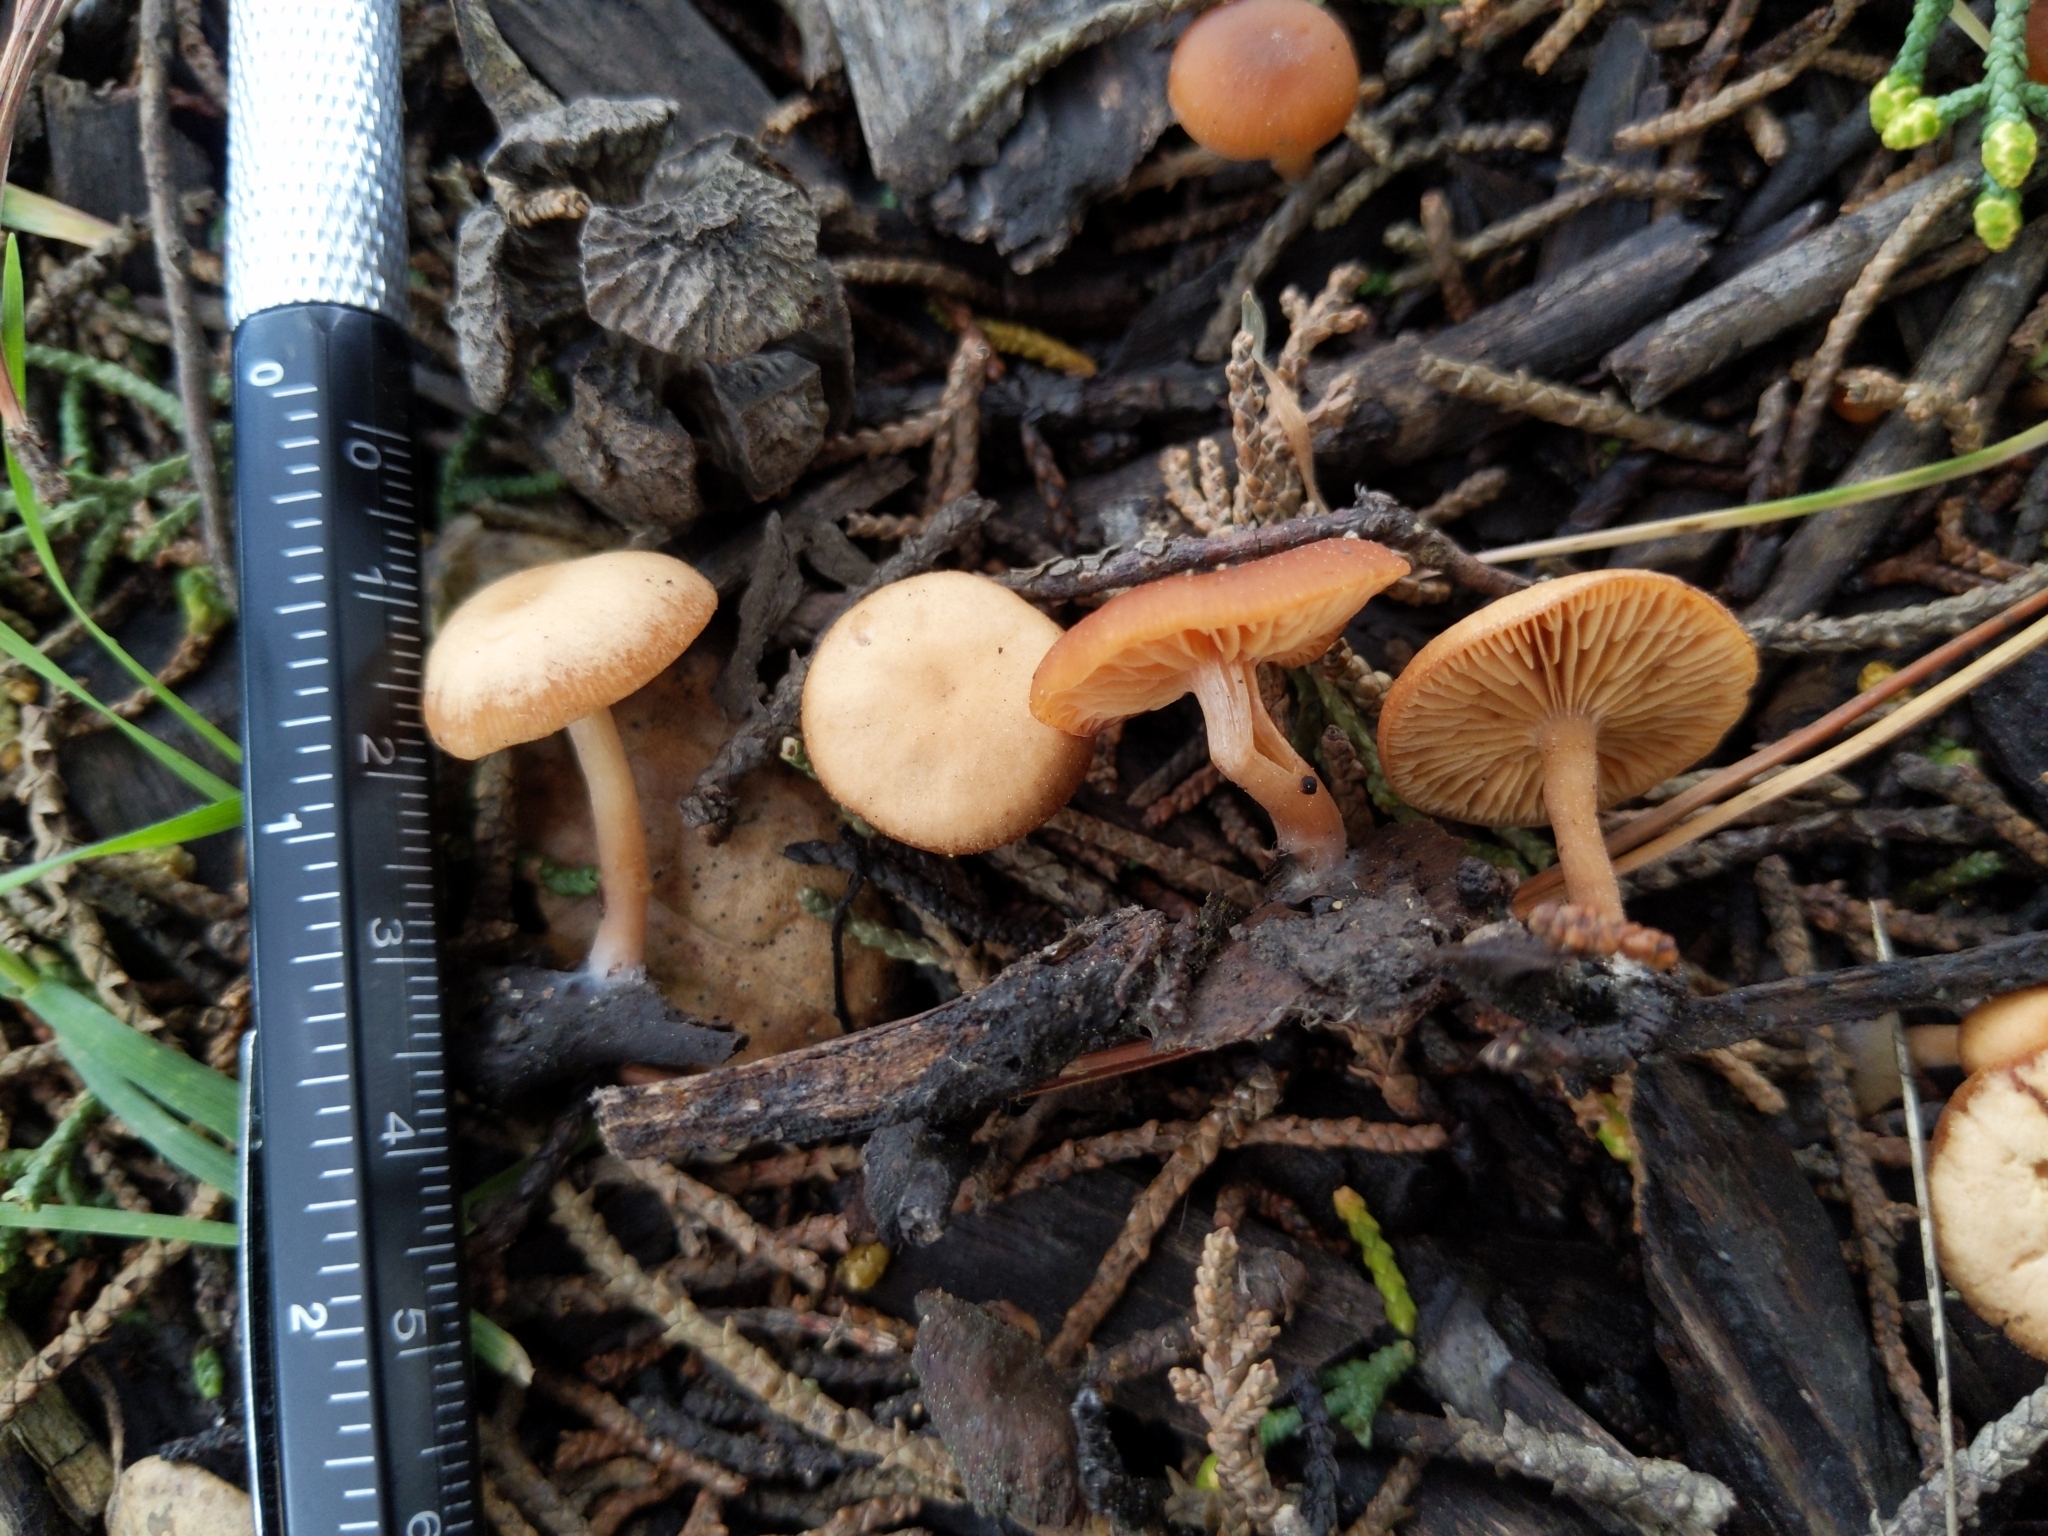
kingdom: Fungi
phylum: Basidiomycota
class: Agaricomycetes
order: Agaricales
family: Tubariaceae
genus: Tubaria
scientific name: Tubaria furfuracea
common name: Scurfy twiglet
